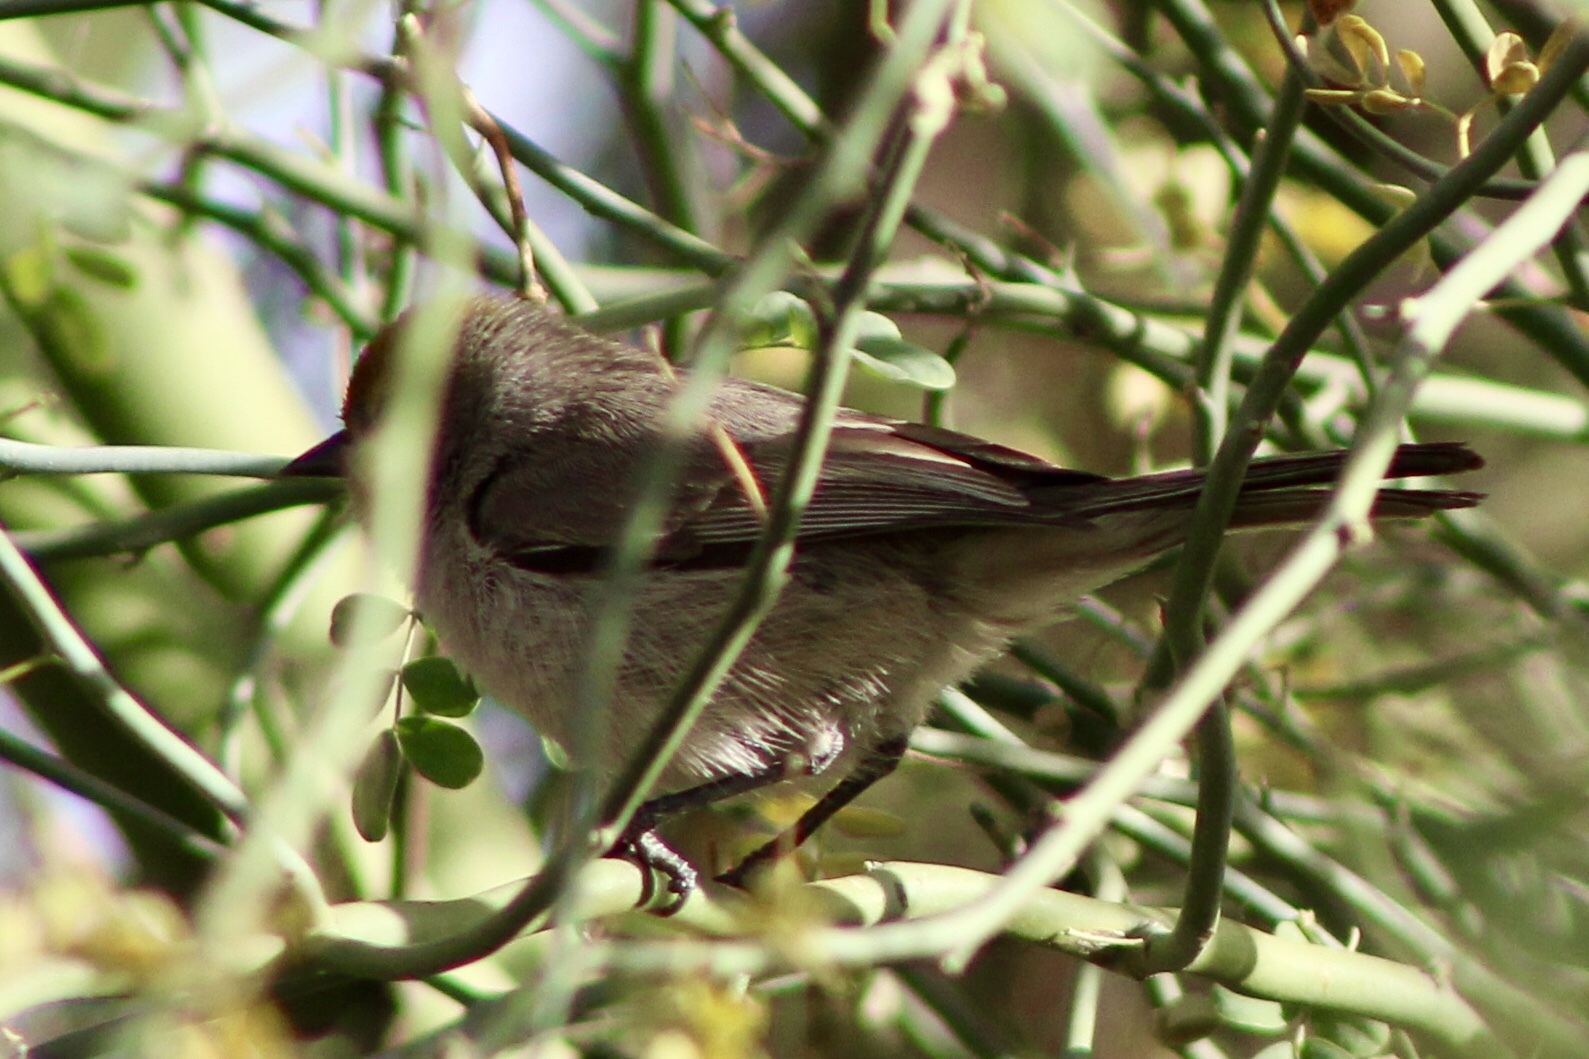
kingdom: Animalia
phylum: Chordata
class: Aves
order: Passeriformes
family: Remizidae
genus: Auriparus
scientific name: Auriparus flaviceps
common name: Verdin
